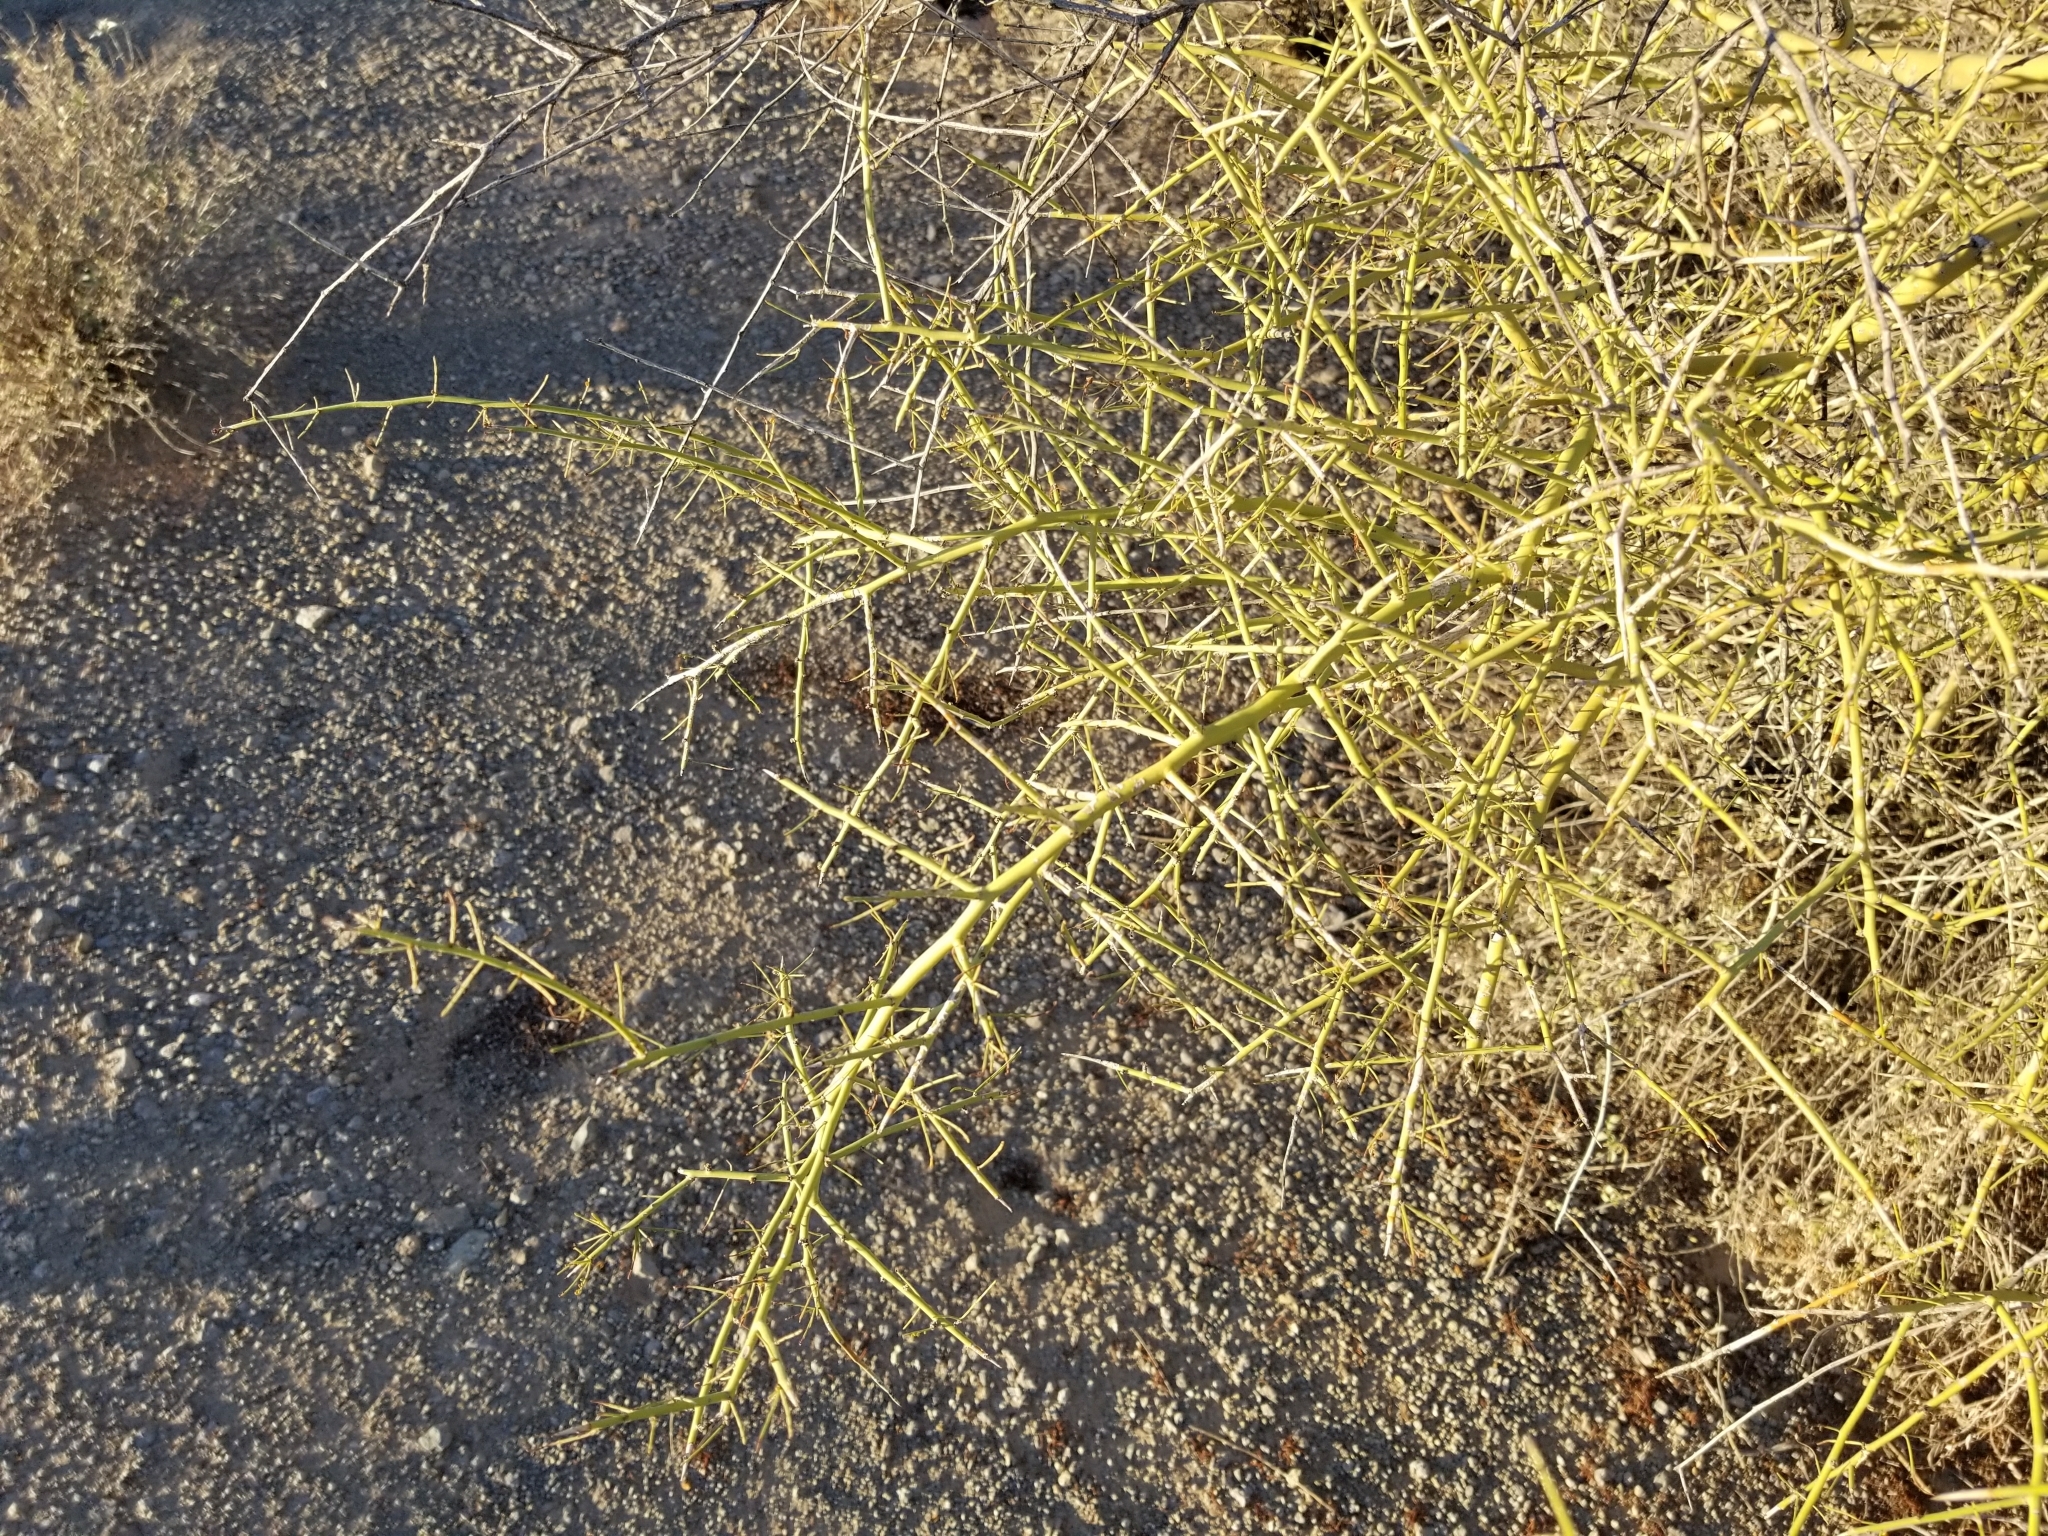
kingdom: Plantae
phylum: Tracheophyta
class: Magnoliopsida
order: Fabales
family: Fabaceae
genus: Parkinsonia
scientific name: Parkinsonia microphylla
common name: Yellow paloverde
